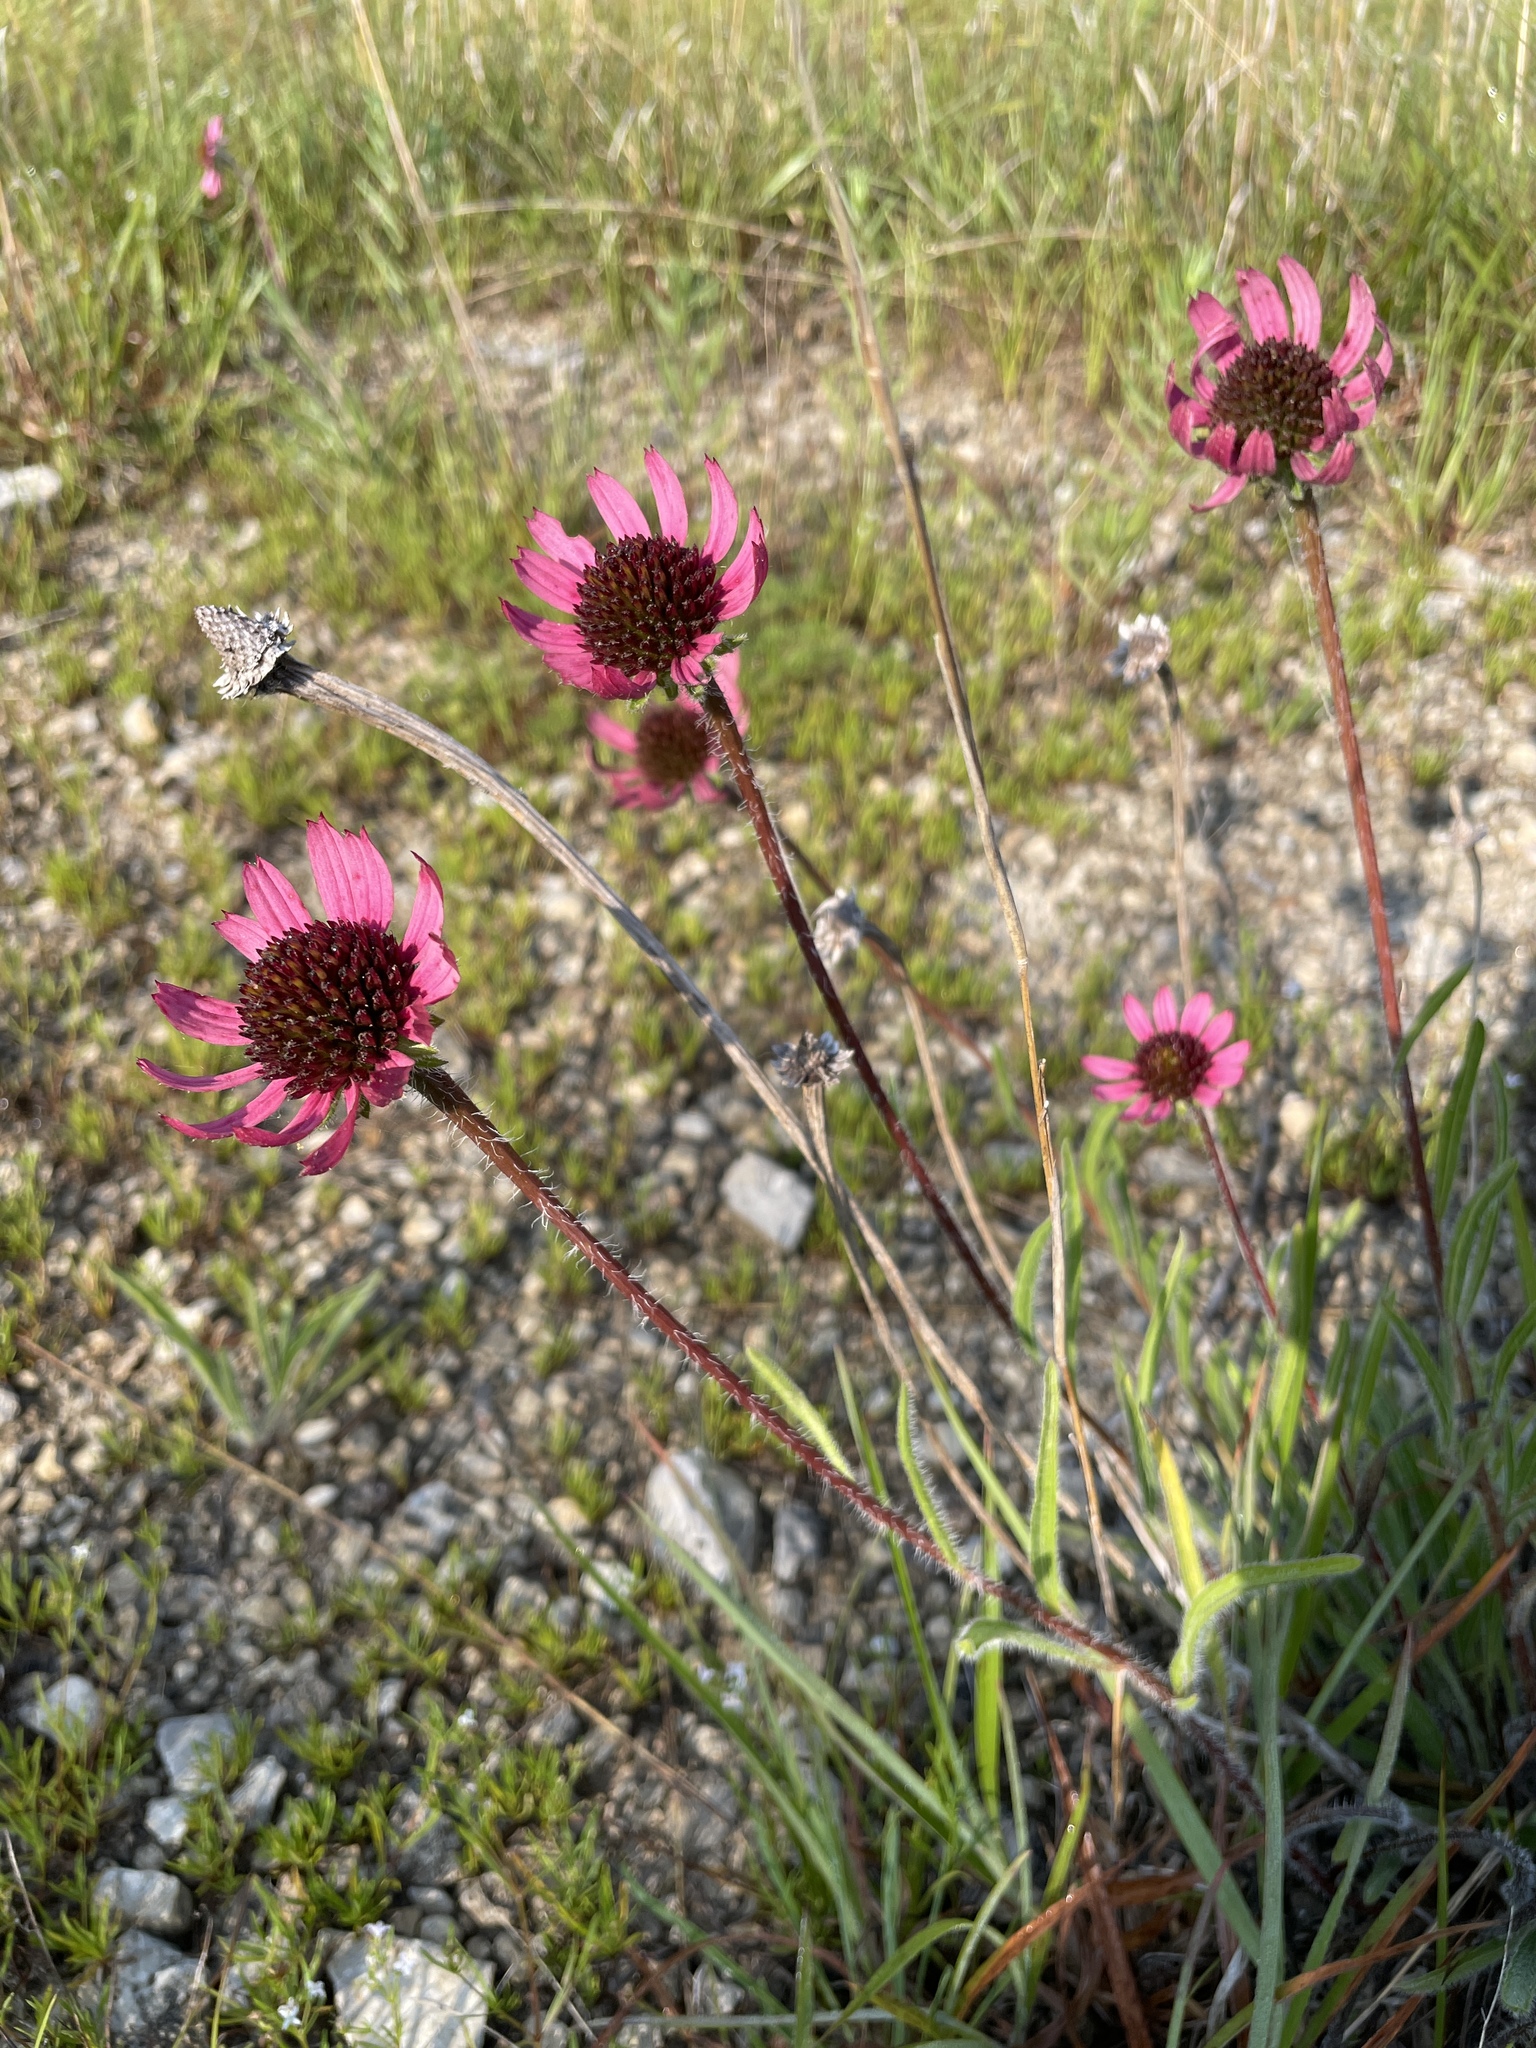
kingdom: Plantae
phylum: Tracheophyta
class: Magnoliopsida
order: Asterales
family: Asteraceae
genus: Echinacea
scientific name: Echinacea tennesseensis
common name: Tennessee purple-coneflower
